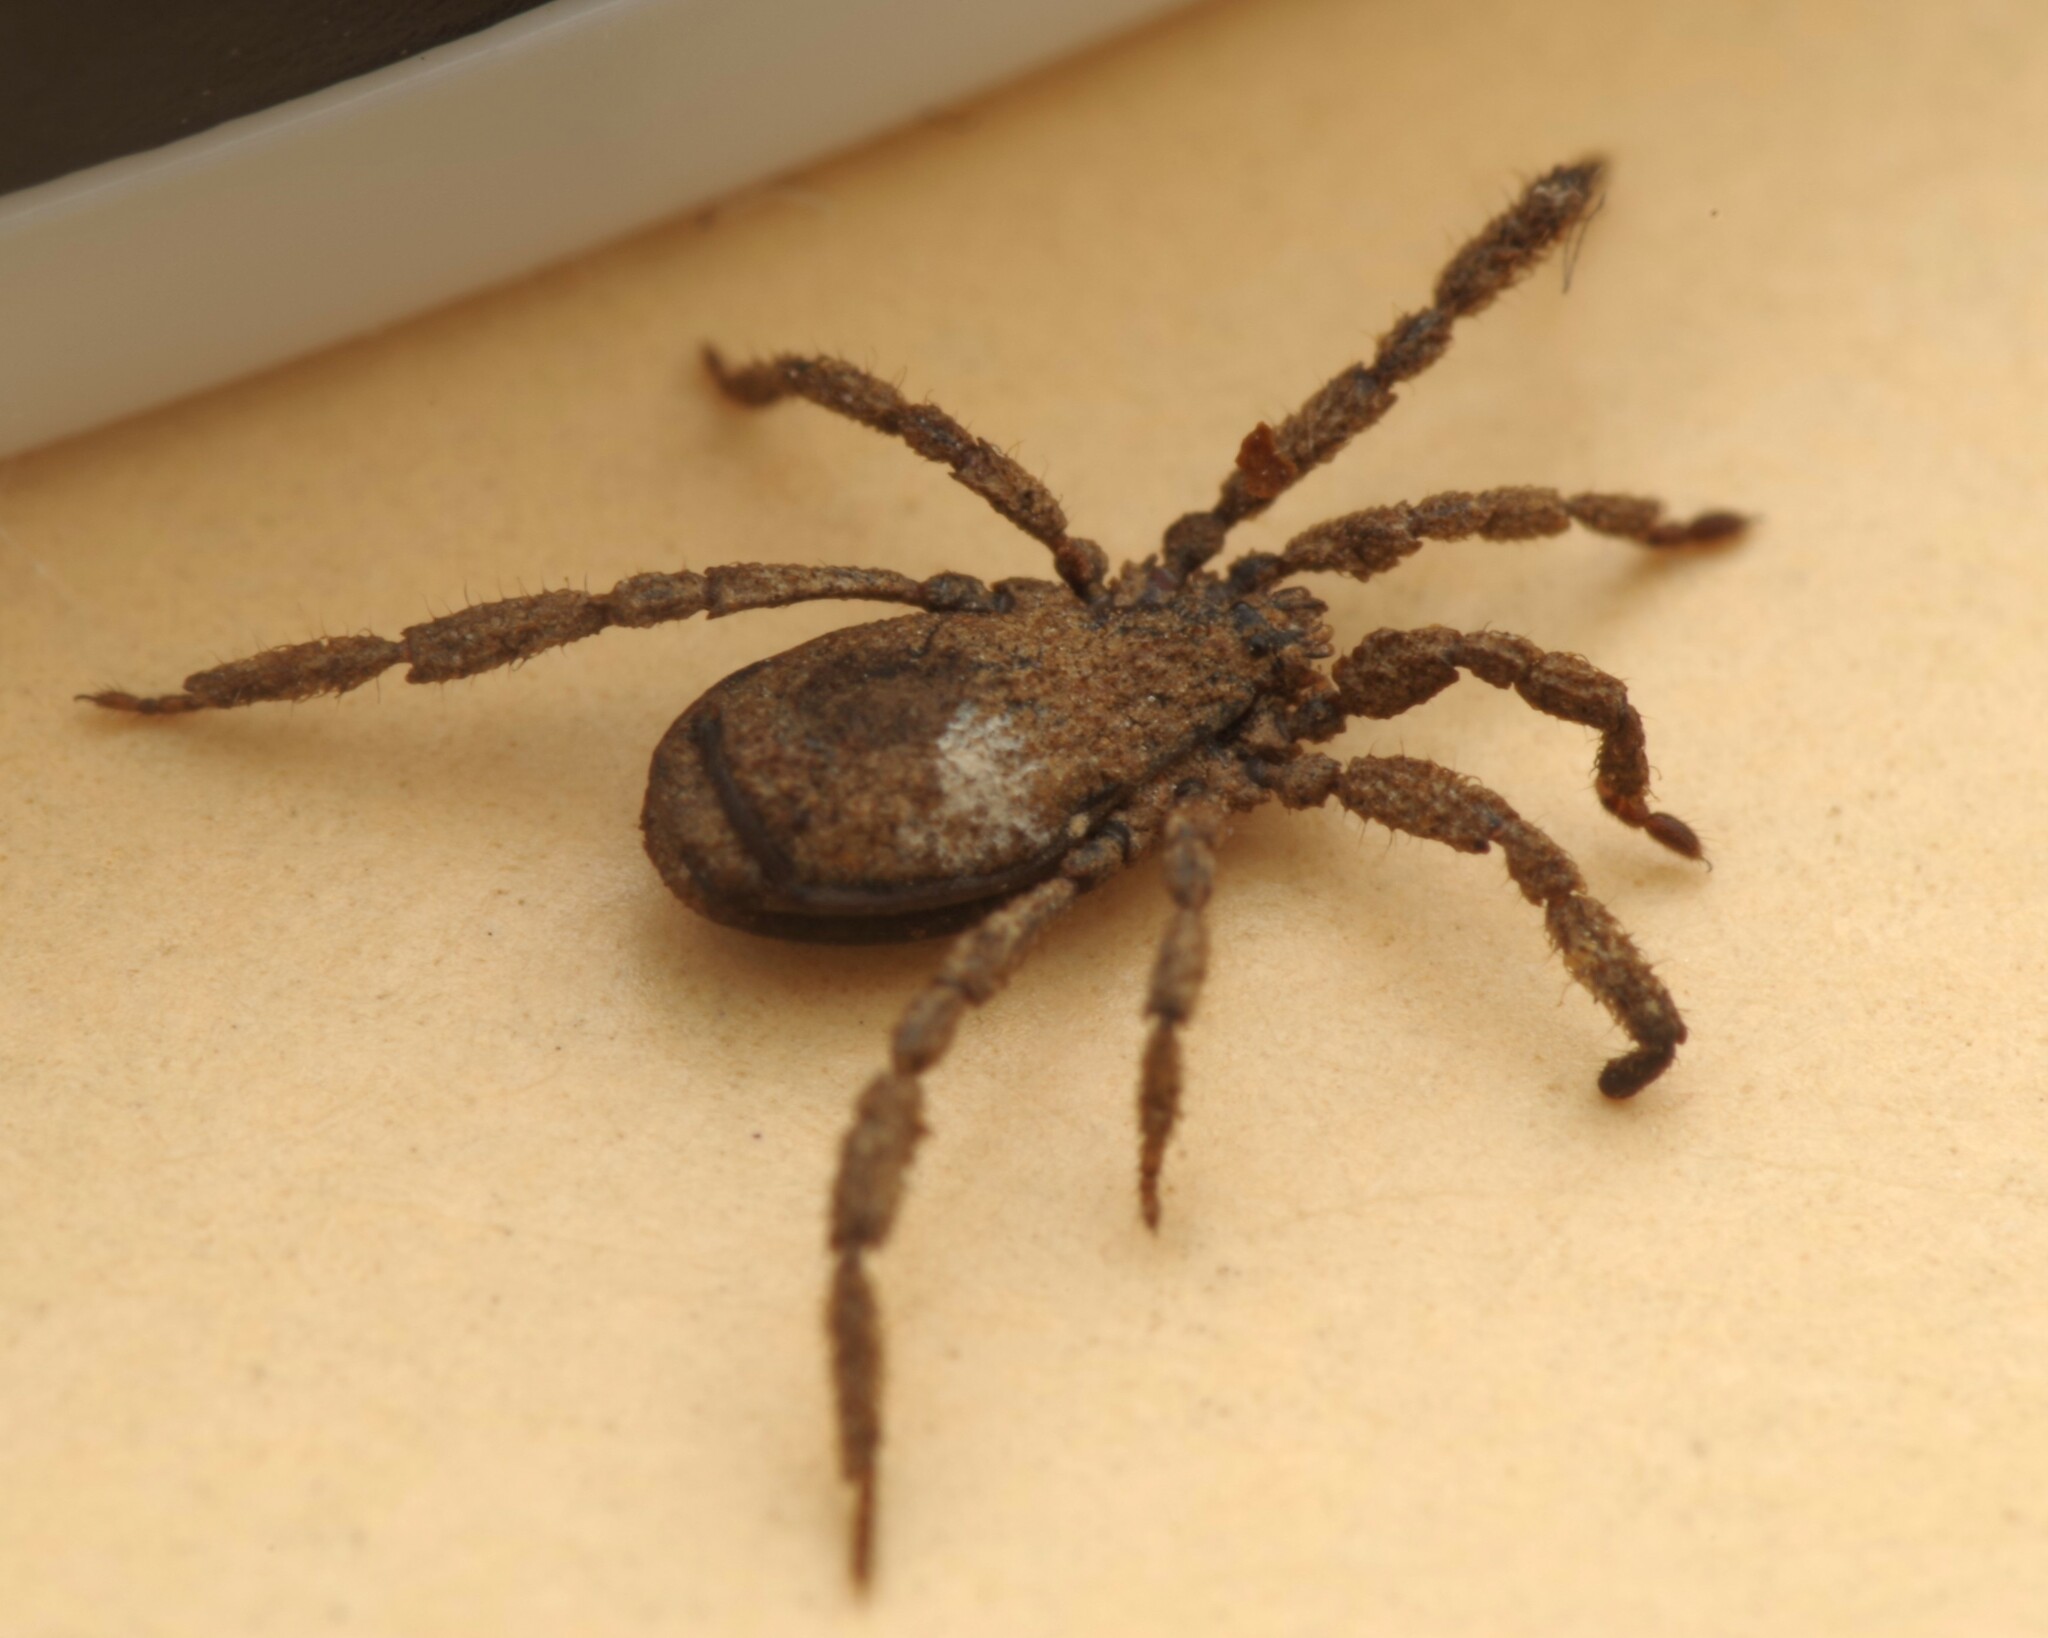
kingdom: Animalia
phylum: Arthropoda
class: Arachnida
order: Opiliones
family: Trogulidae
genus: Anelasmocephalus
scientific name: Anelasmocephalus cambridgei
